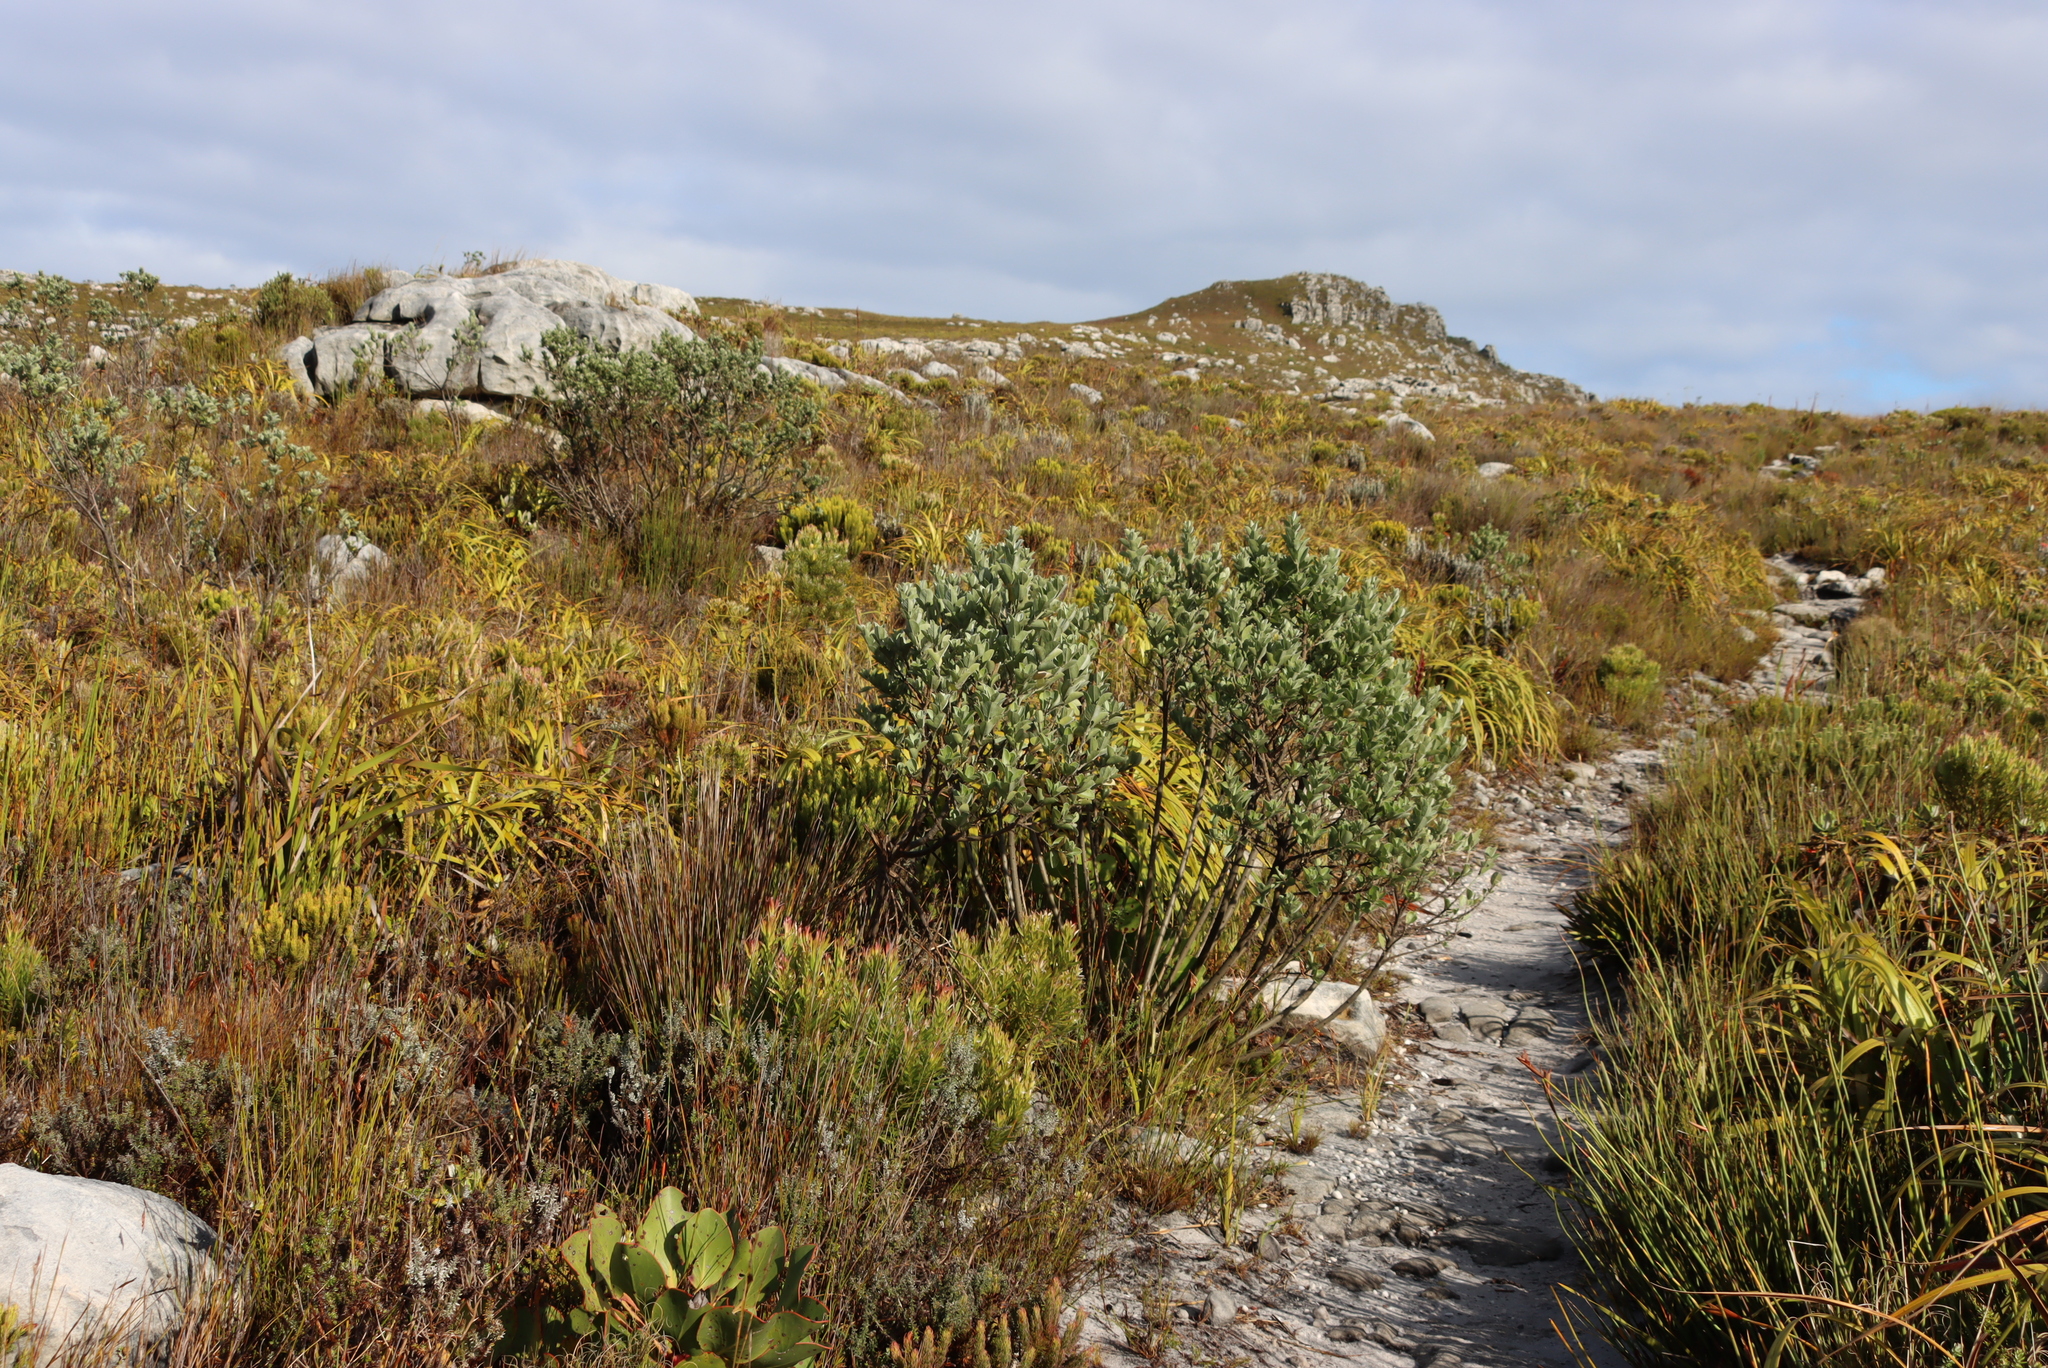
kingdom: Plantae
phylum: Tracheophyta
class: Magnoliopsida
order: Fabales
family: Fabaceae
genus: Podalyria
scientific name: Podalyria calyptrata
